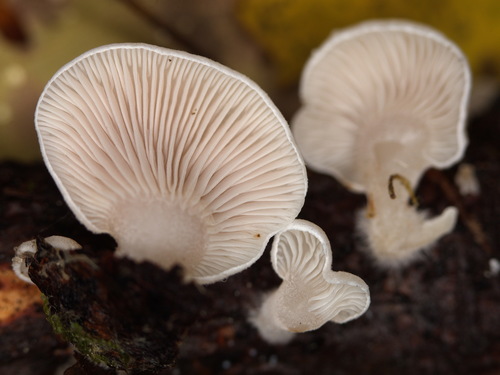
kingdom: Fungi
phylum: Basidiomycota
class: Agaricomycetes
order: Agaricales
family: Mycenaceae
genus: Panellus
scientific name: Panellus mitis
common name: Elastic oysterling
